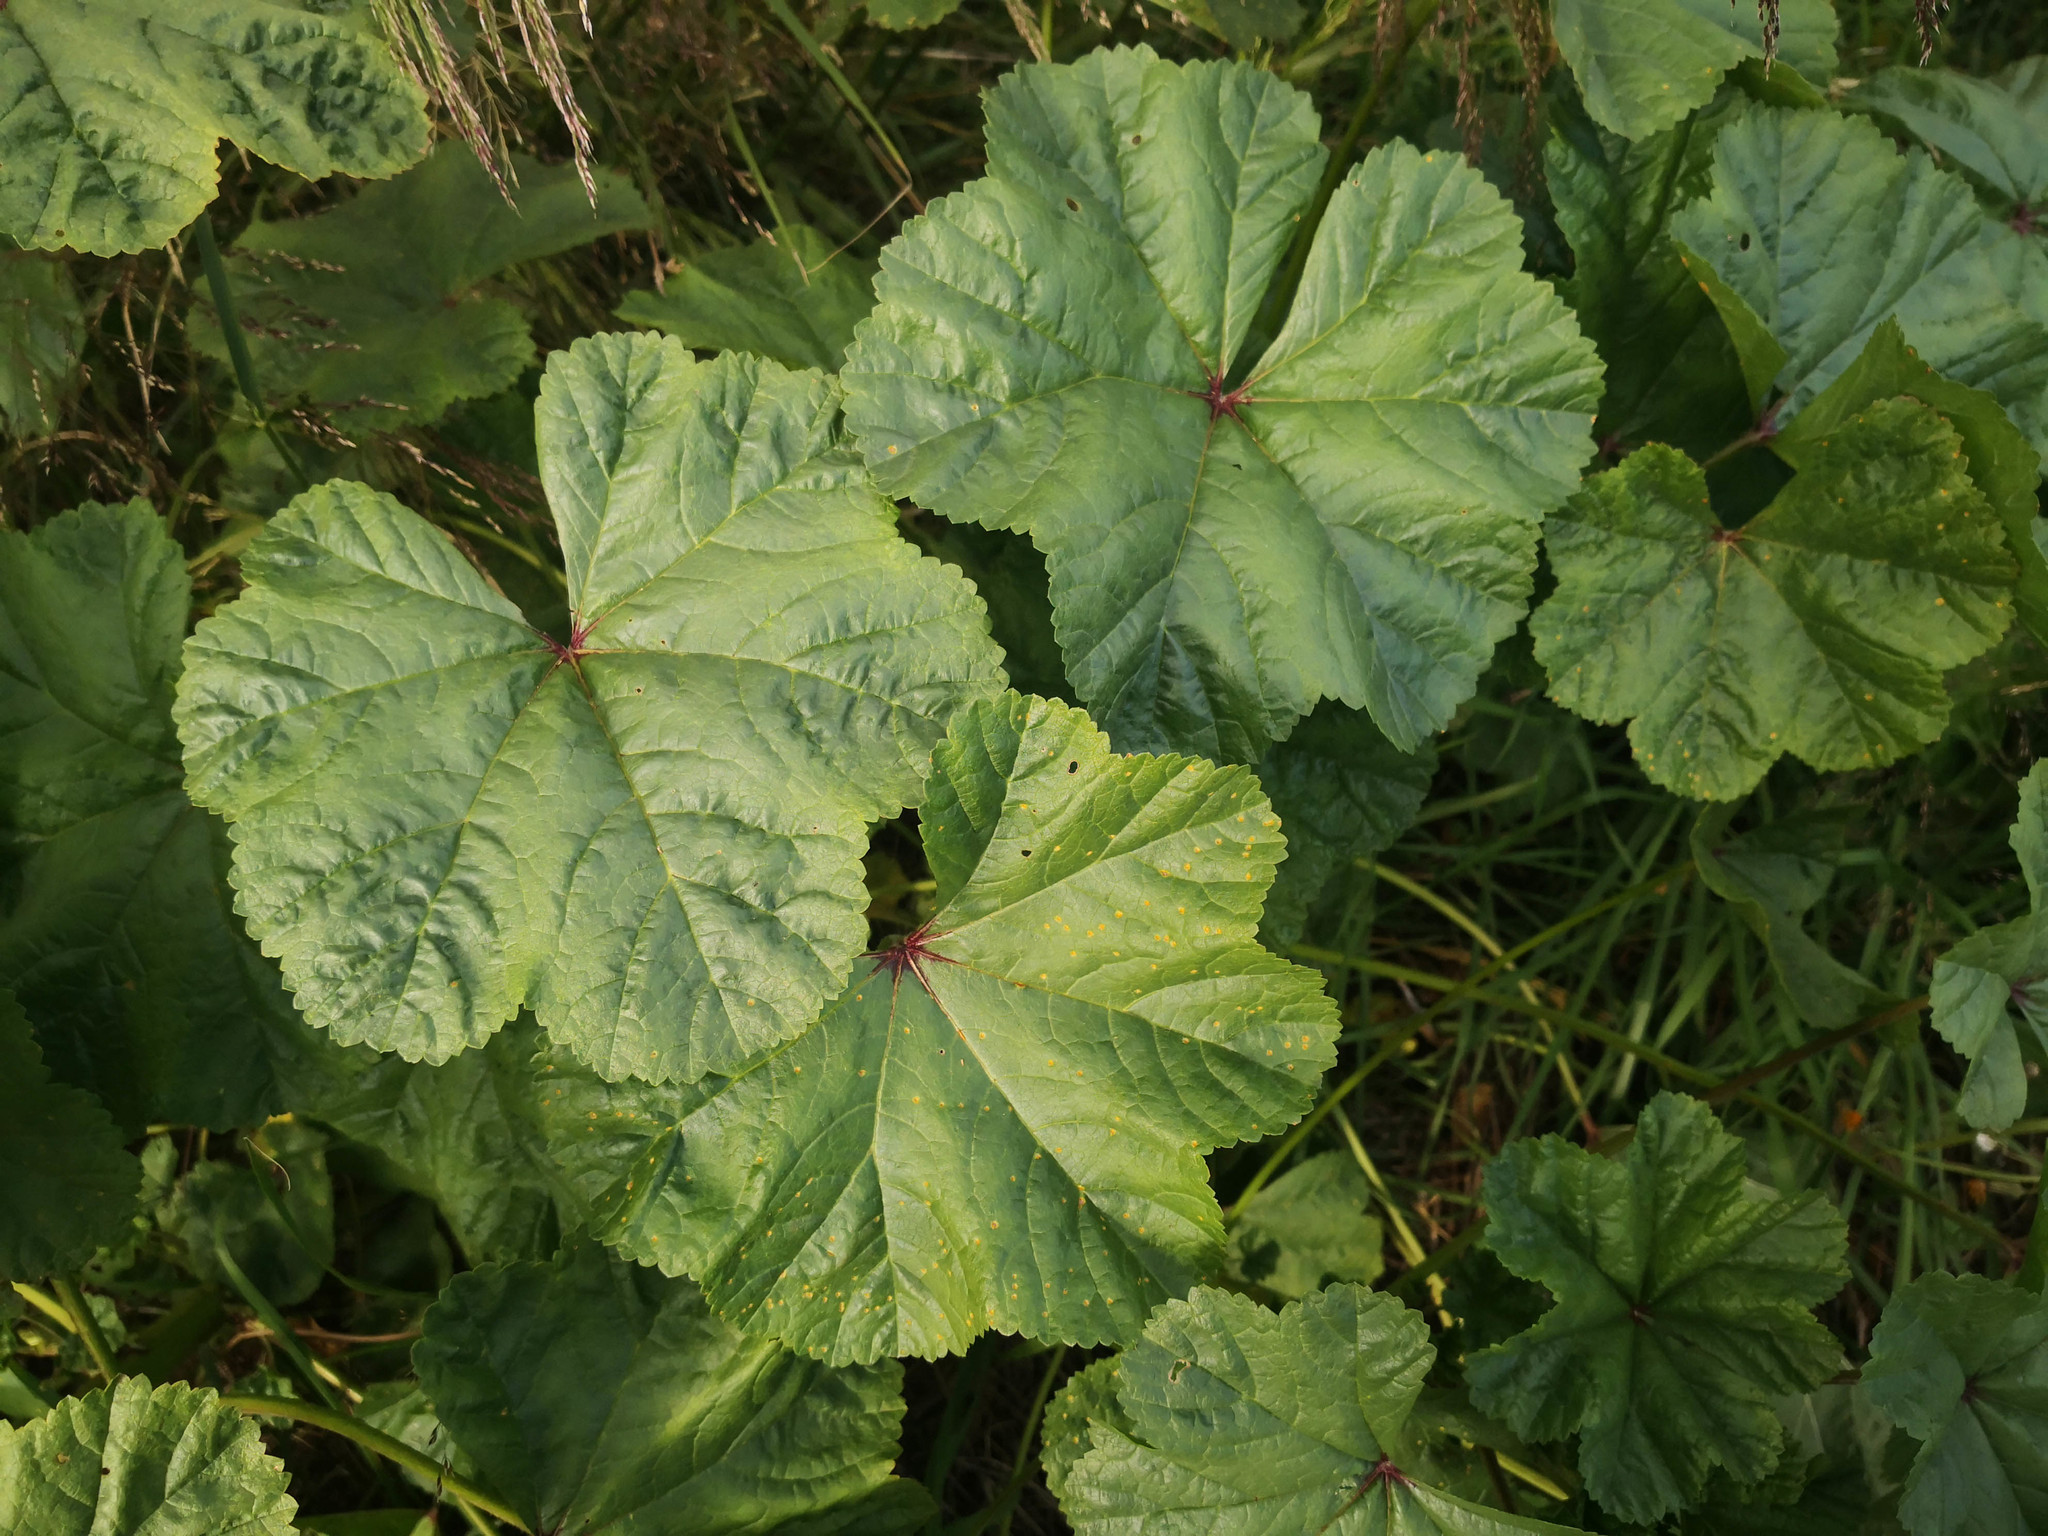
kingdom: Plantae
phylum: Tracheophyta
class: Magnoliopsida
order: Malvales
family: Malvaceae
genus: Malva
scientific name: Malva sylvestris
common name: Common mallow
